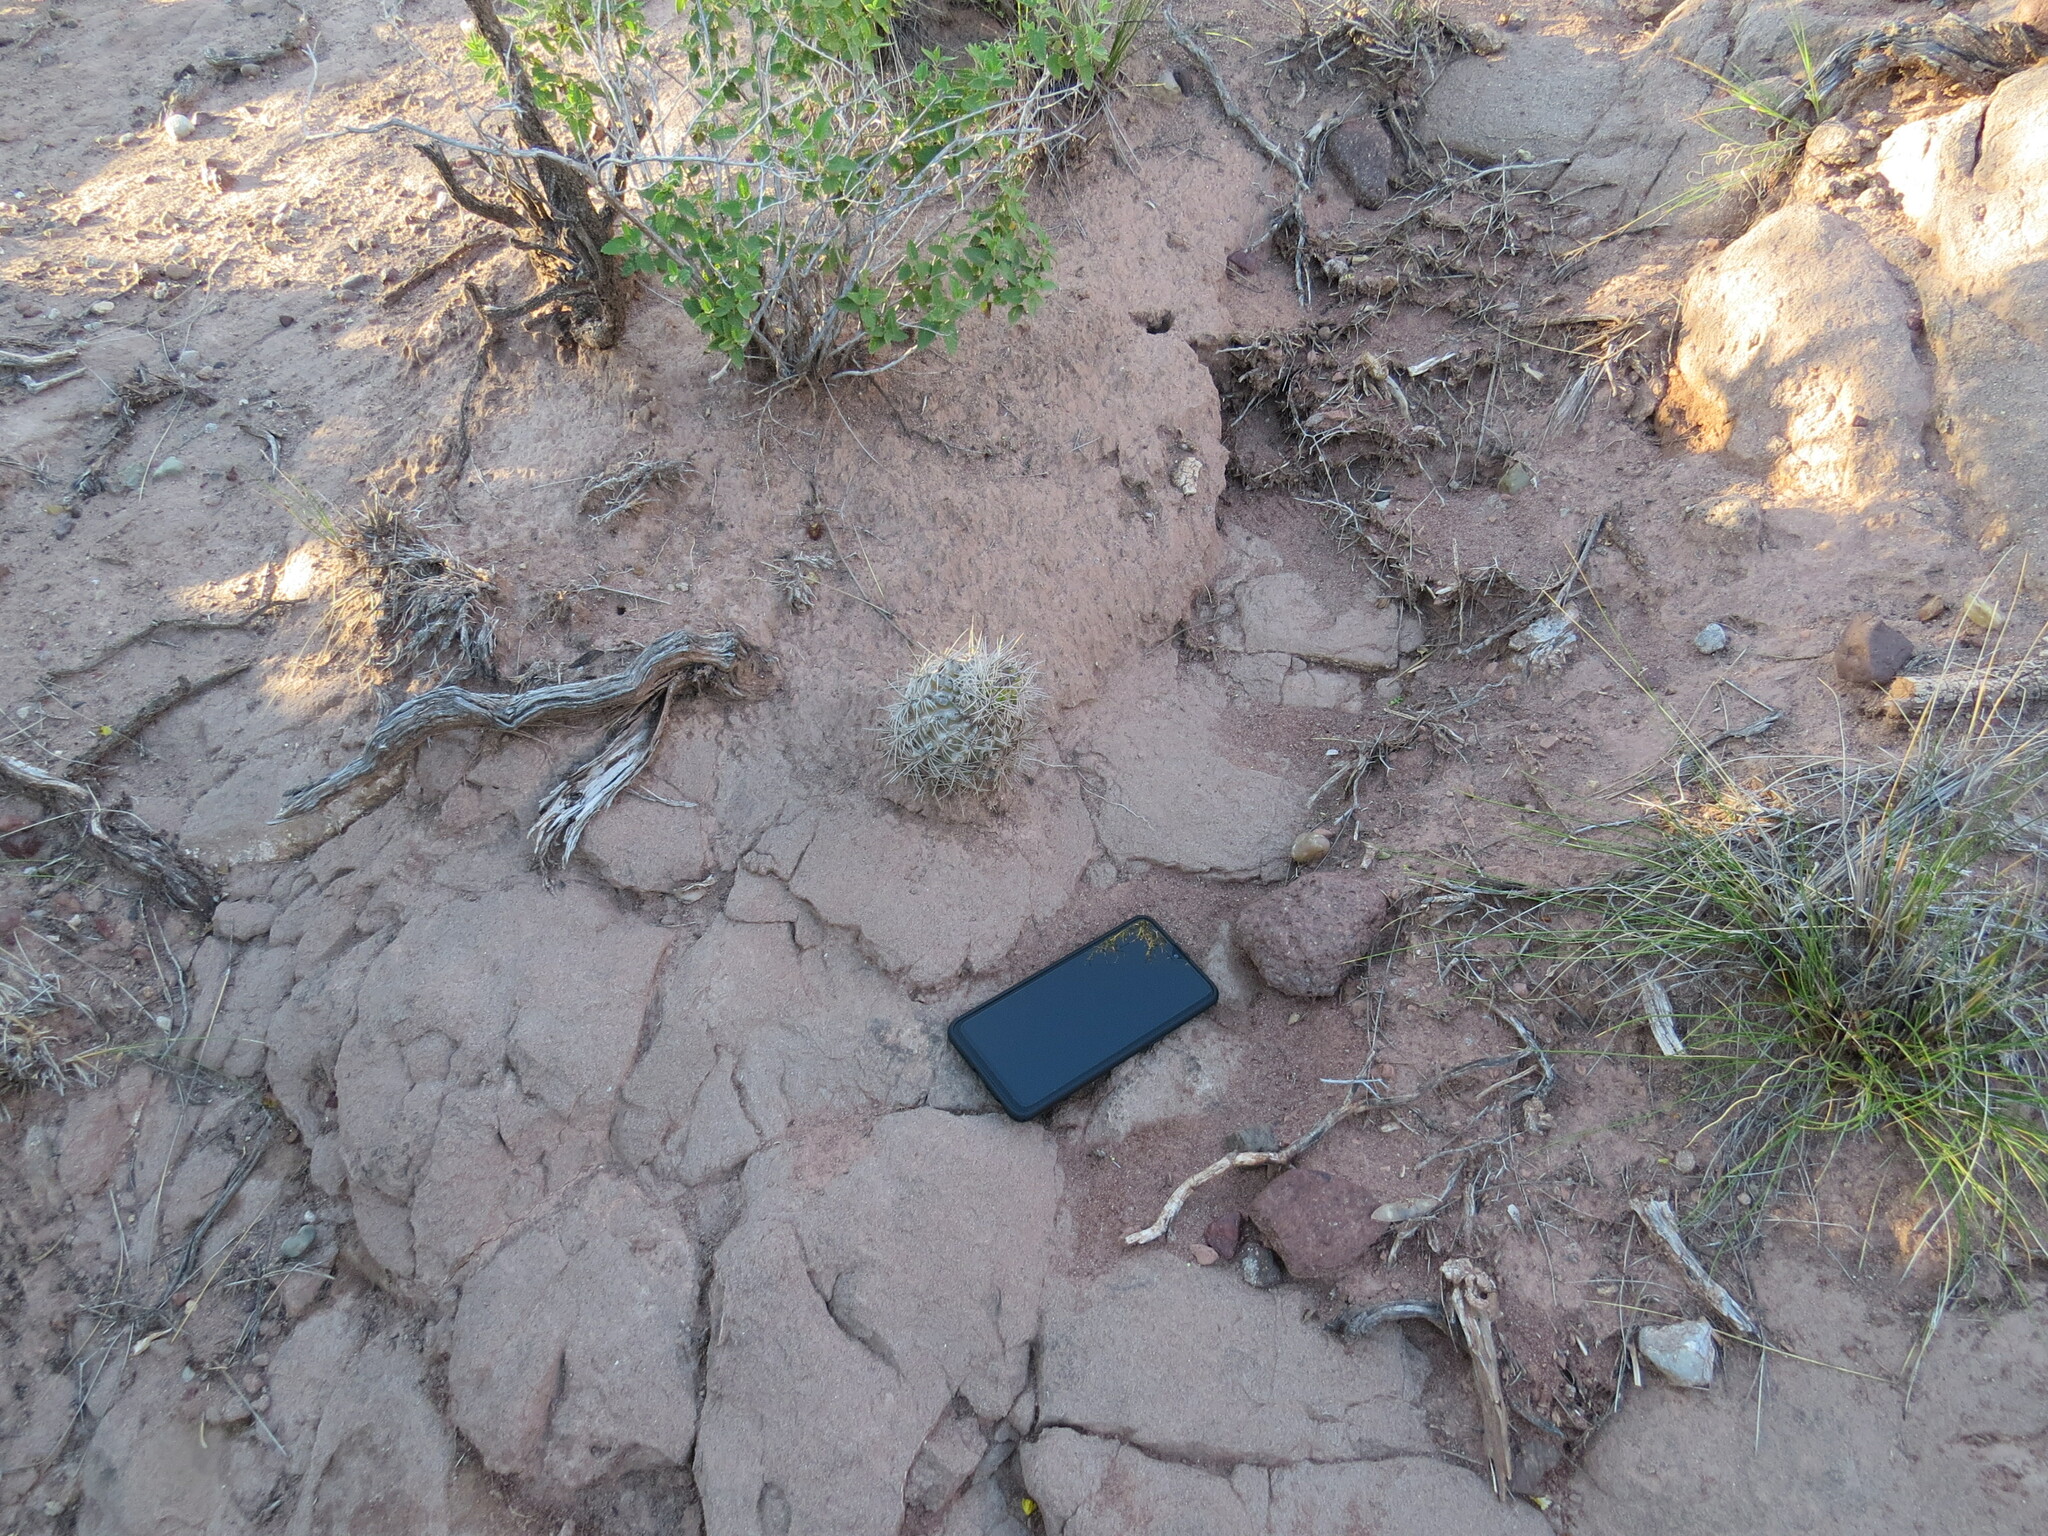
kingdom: Plantae
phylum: Tracheophyta
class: Magnoliopsida
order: Caryophyllales
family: Cactaceae
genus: Eriosyce
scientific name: Eriosyce strausiana
